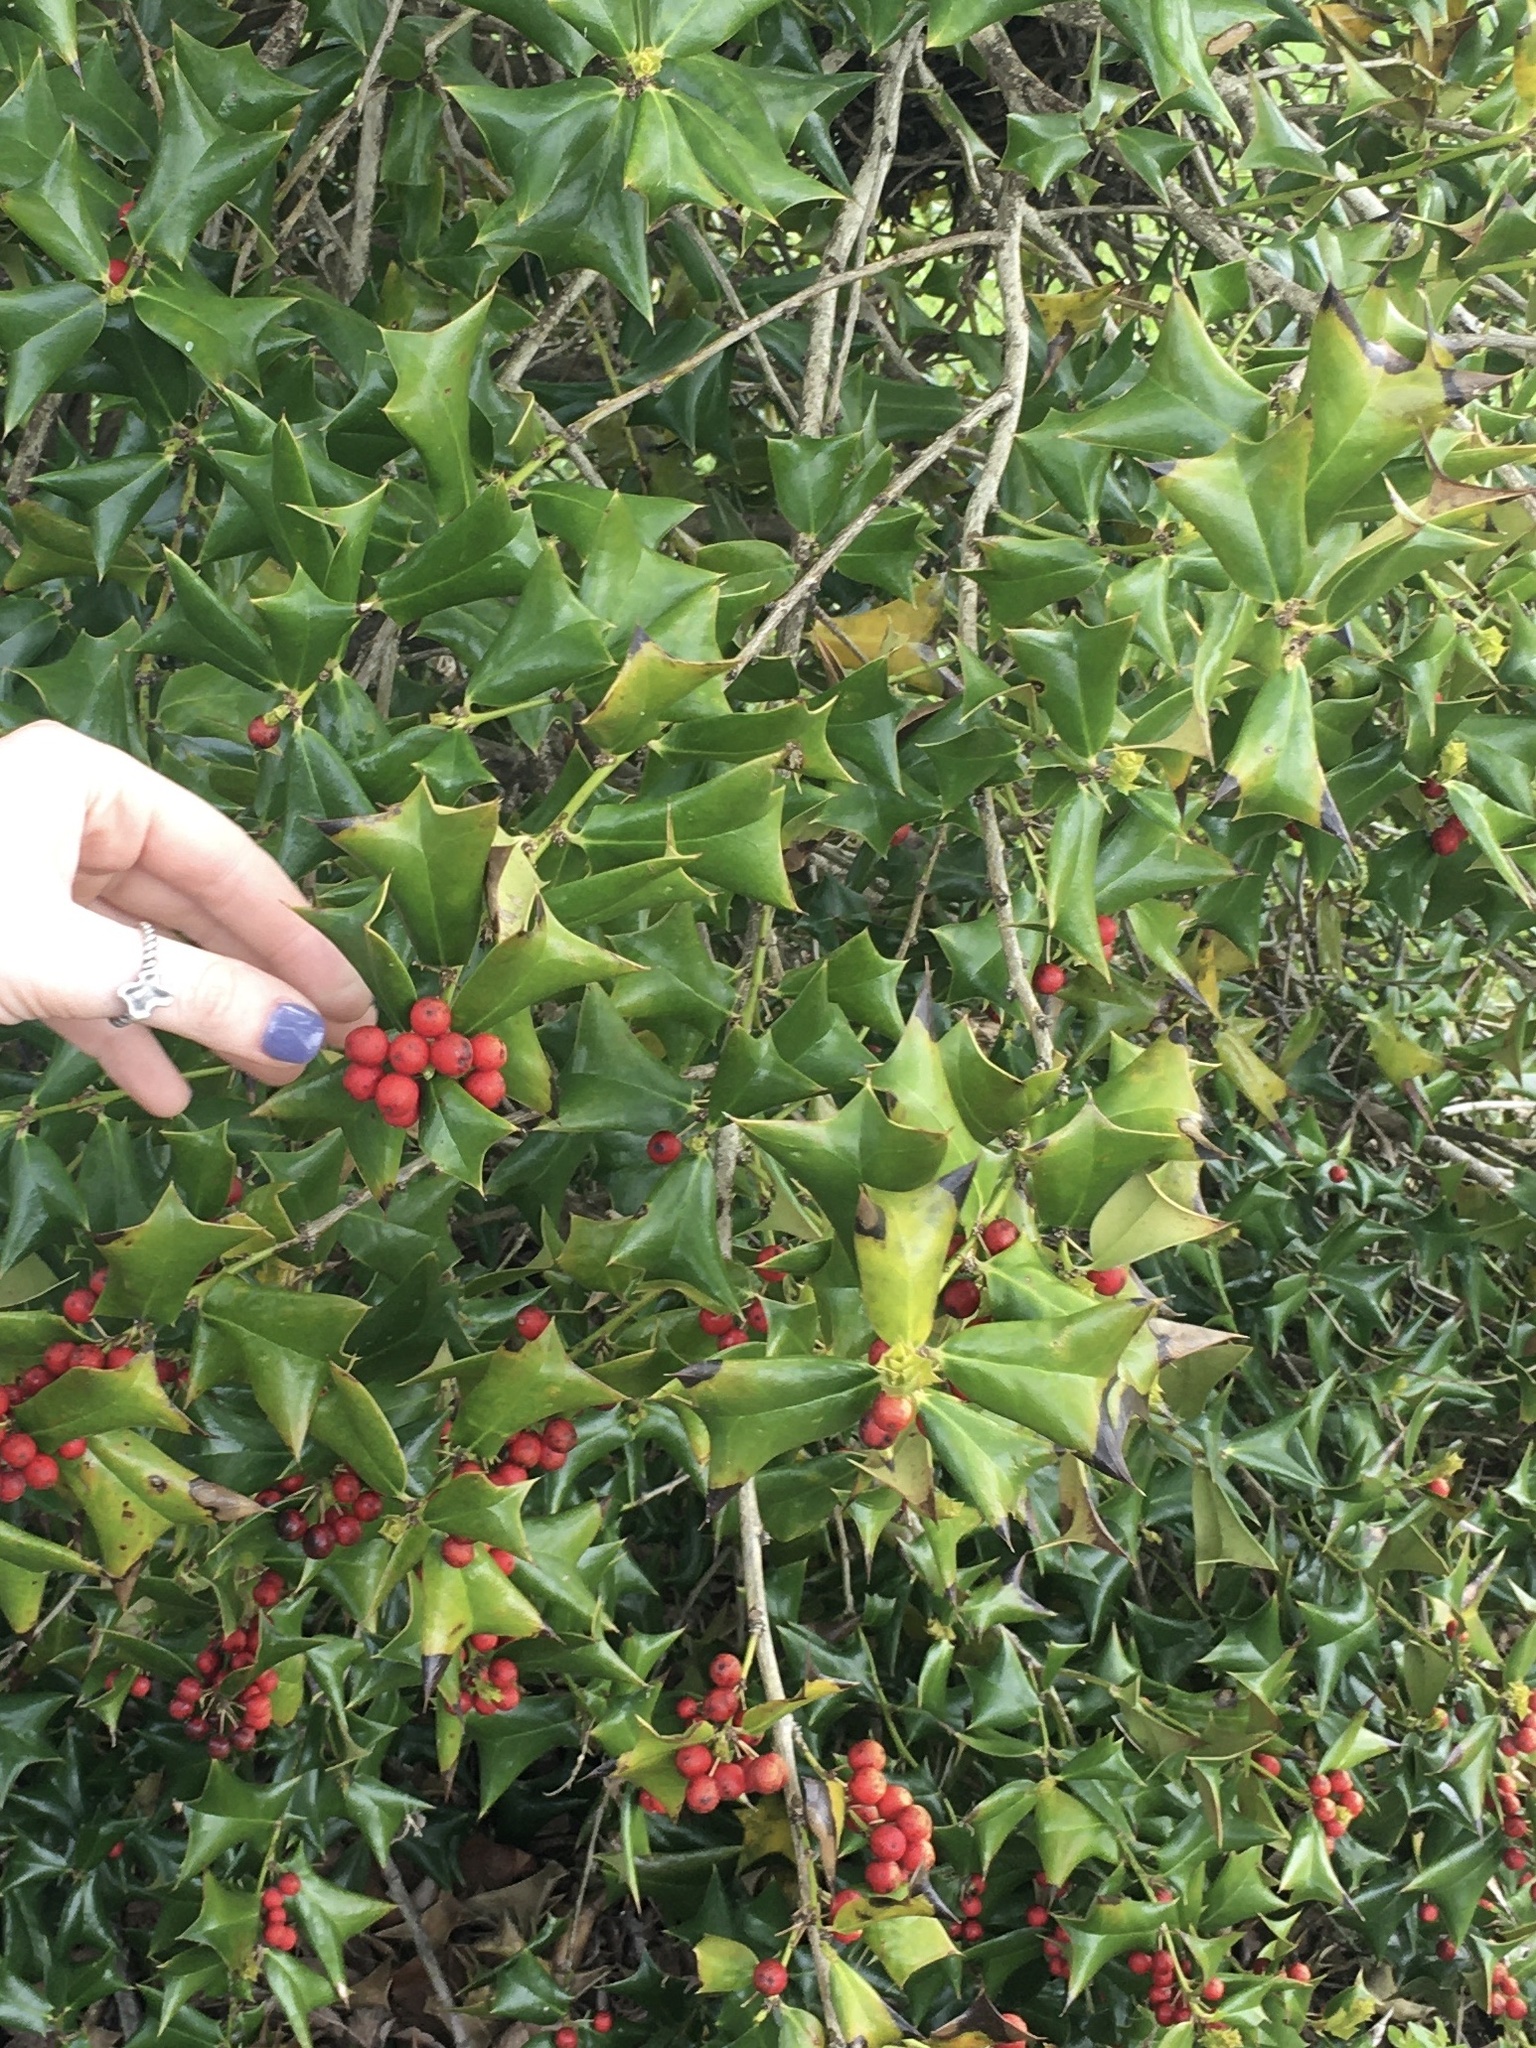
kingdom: Plantae
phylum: Tracheophyta
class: Magnoliopsida
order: Aquifoliales
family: Aquifoliaceae
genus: Ilex
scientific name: Ilex cornuta
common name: Chinese holly
